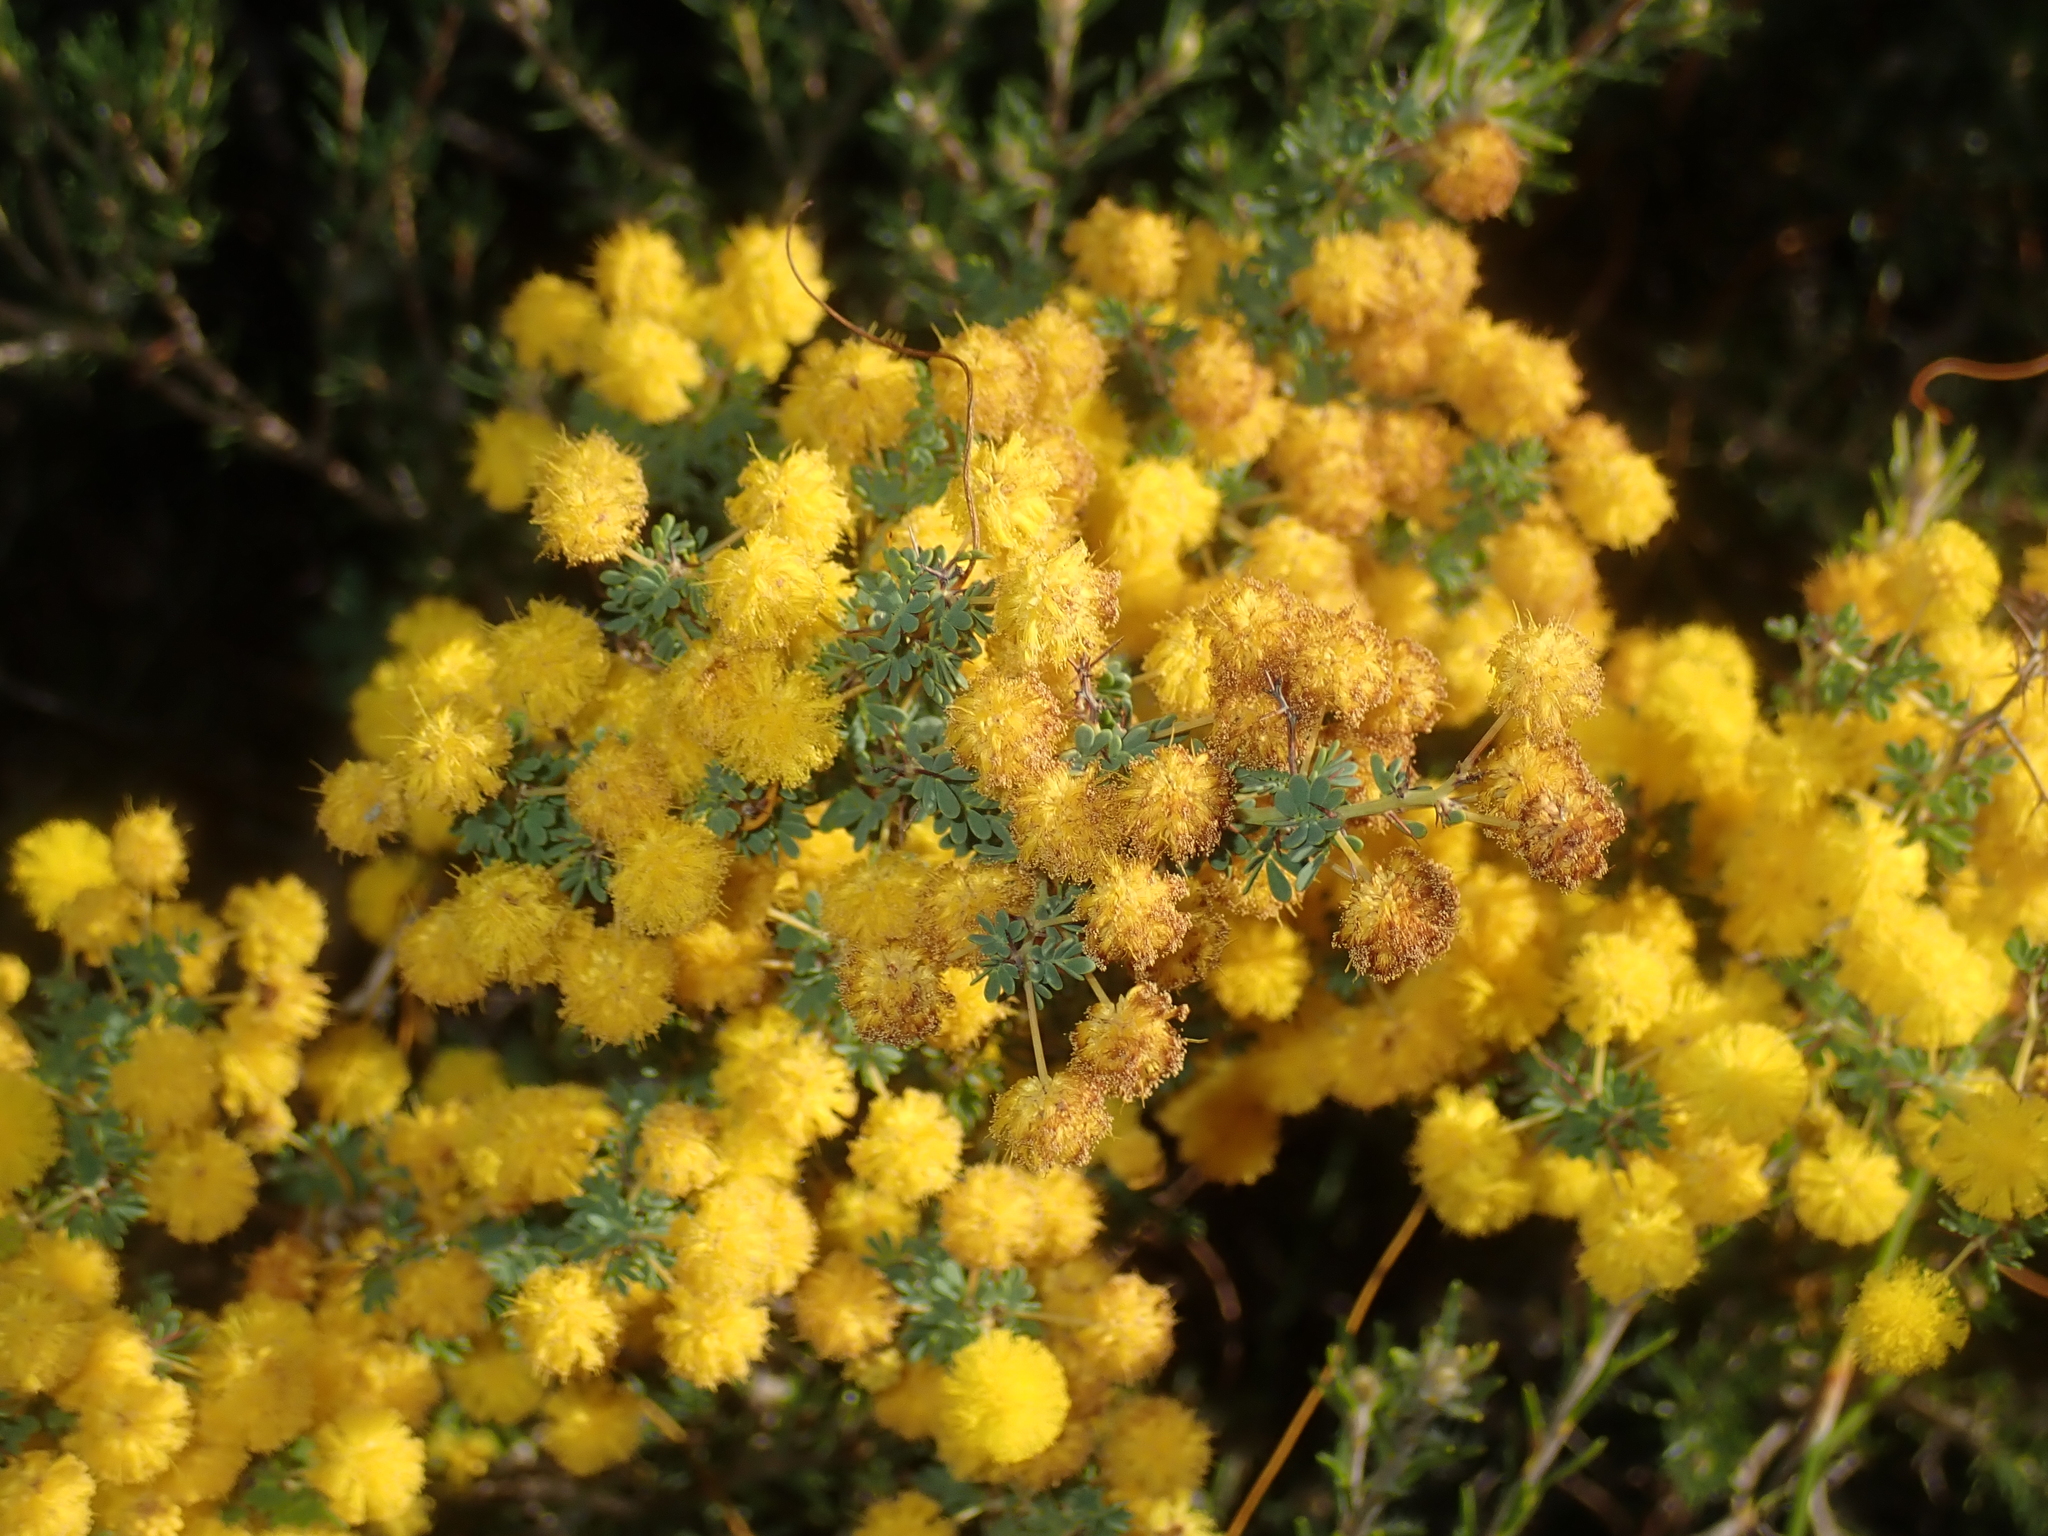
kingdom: Plantae
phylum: Tracheophyta
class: Magnoliopsida
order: Fabales
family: Fabaceae
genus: Acacia
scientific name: Acacia pulchella
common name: Prickly moses
